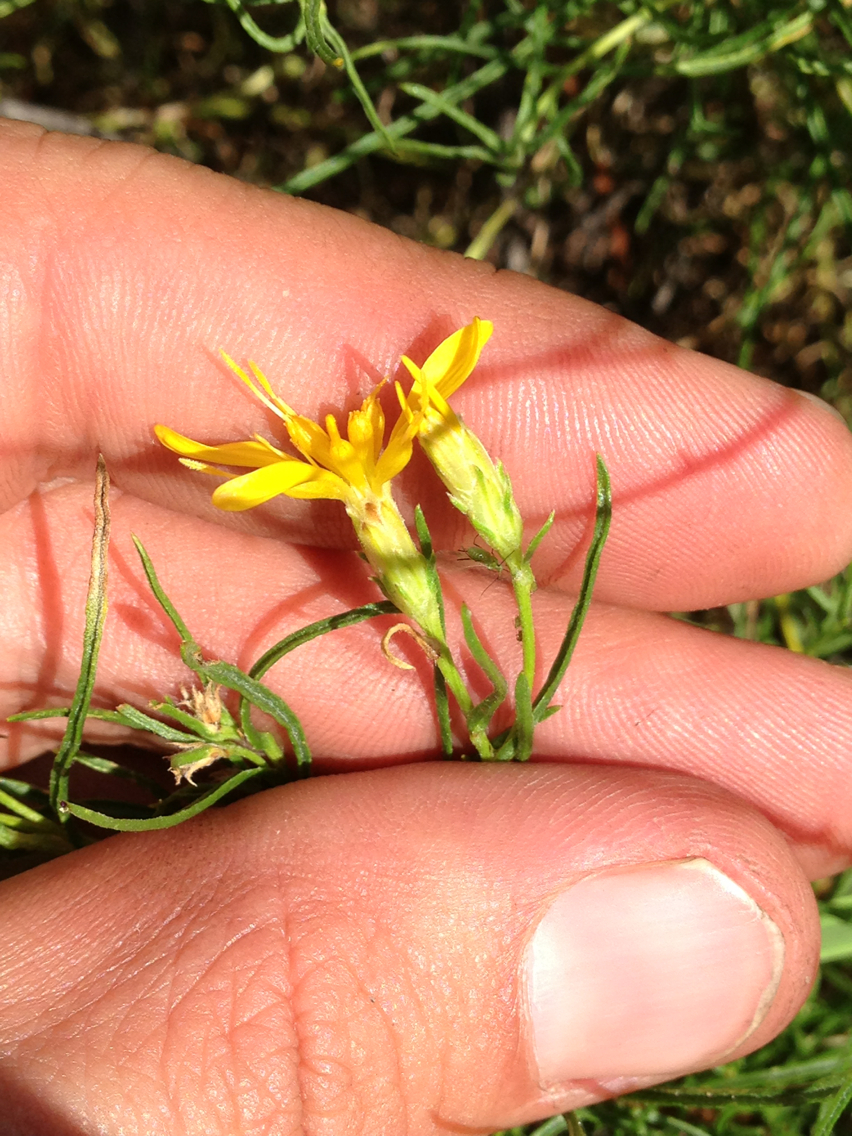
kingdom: Plantae
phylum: Tracheophyta
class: Magnoliopsida
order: Asterales
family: Asteraceae
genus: Ericameria
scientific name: Ericameria bloomeri
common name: Bloomer's goldenbush
